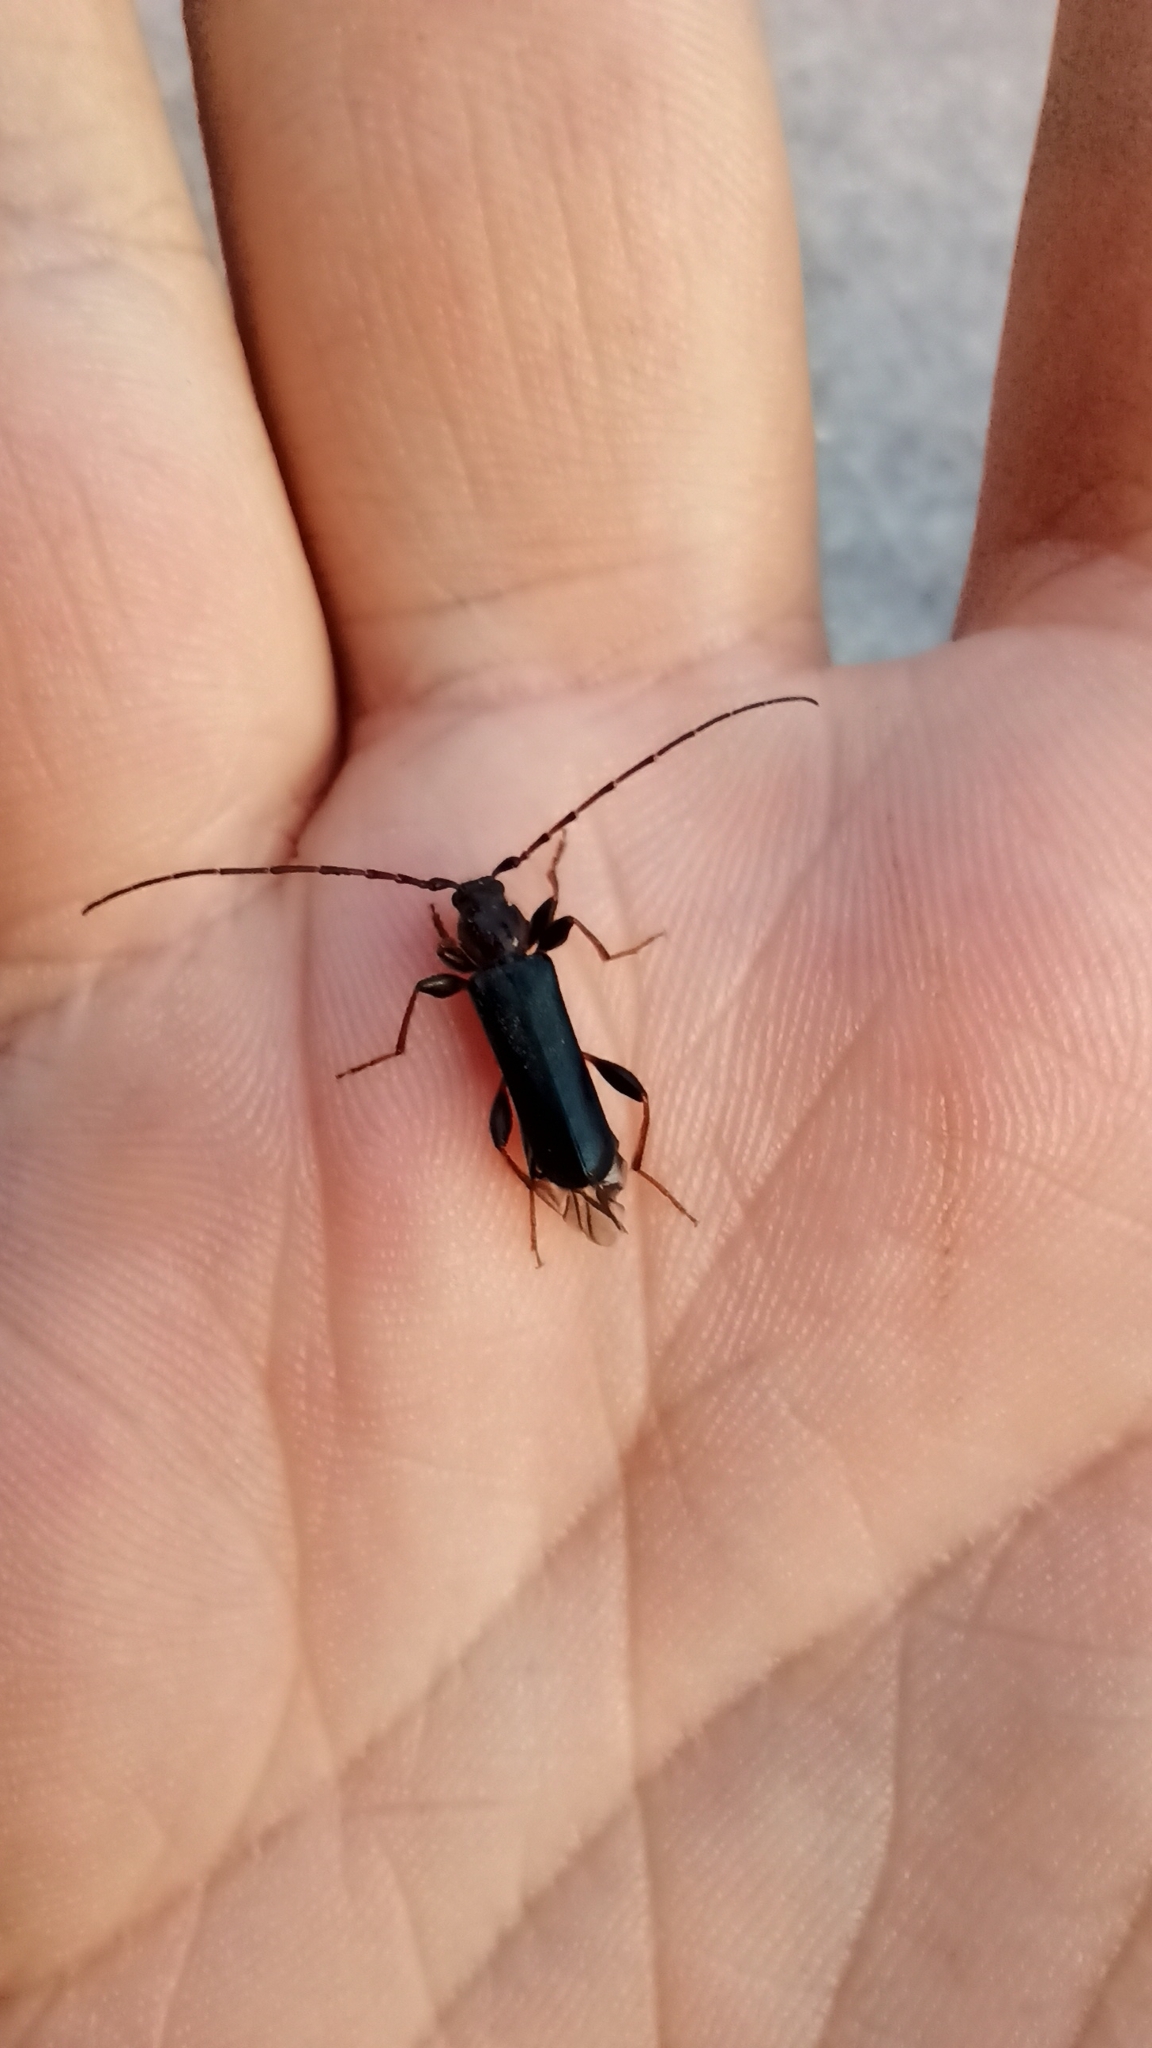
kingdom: Animalia
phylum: Arthropoda
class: Insecta
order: Coleoptera
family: Cerambycidae
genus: Phymatodes
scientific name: Phymatodes testaceus
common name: Long-horned beetle
